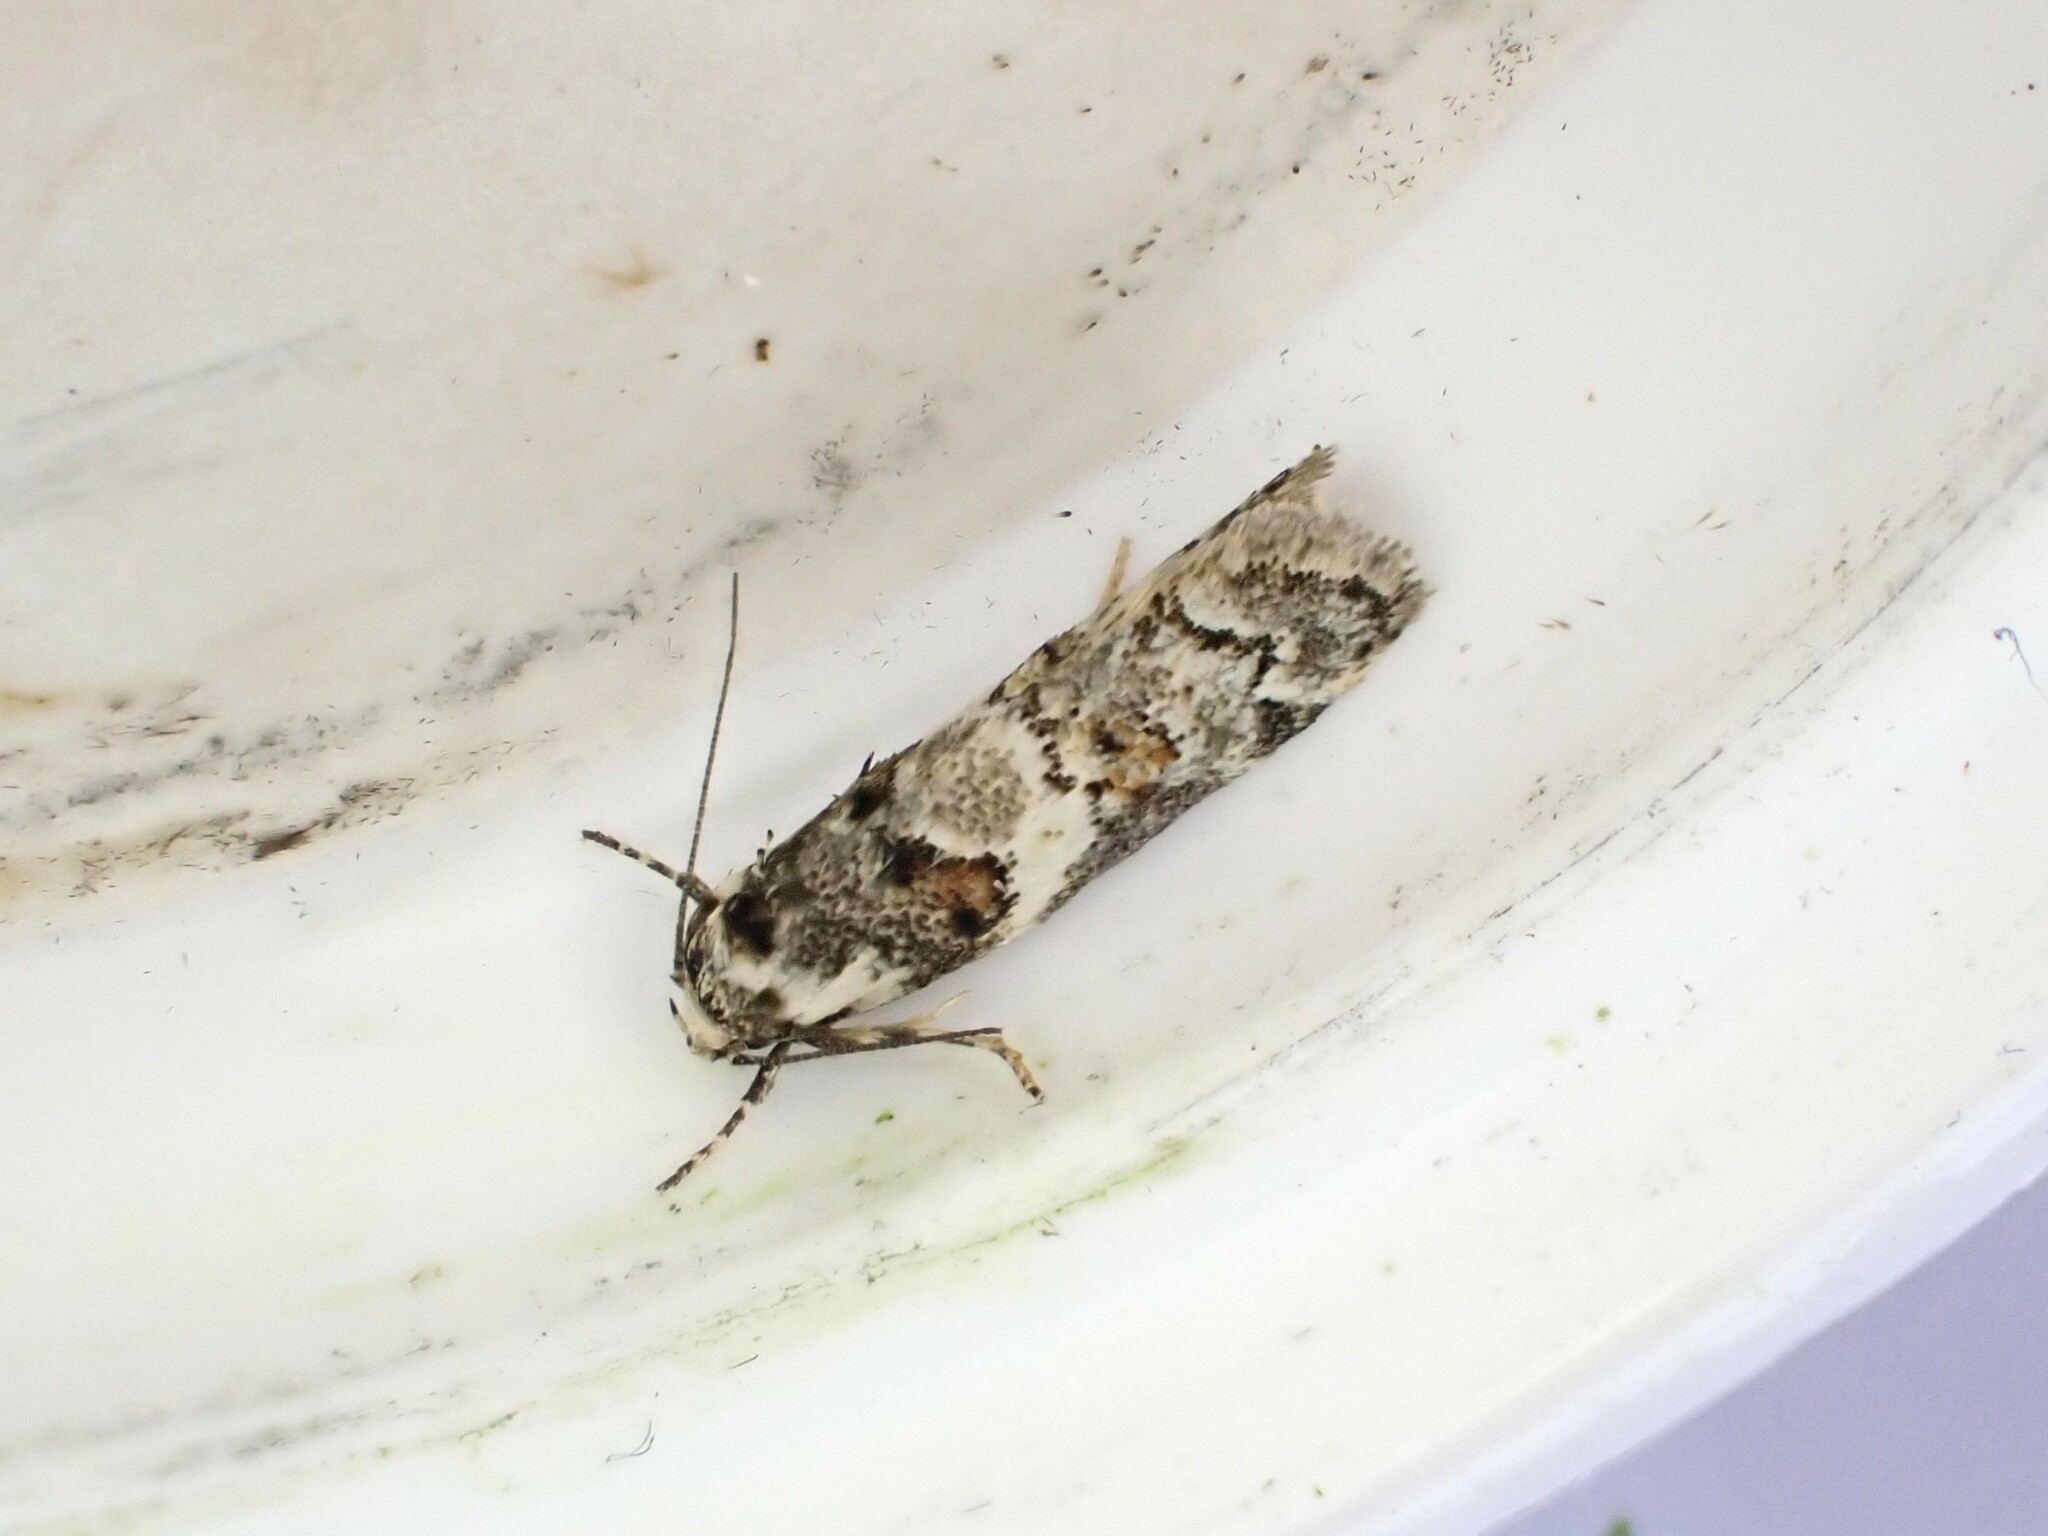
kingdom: Animalia
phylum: Arthropoda
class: Insecta
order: Lepidoptera
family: Oecophoridae
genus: Trachypepla
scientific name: Trachypepla galaxias
